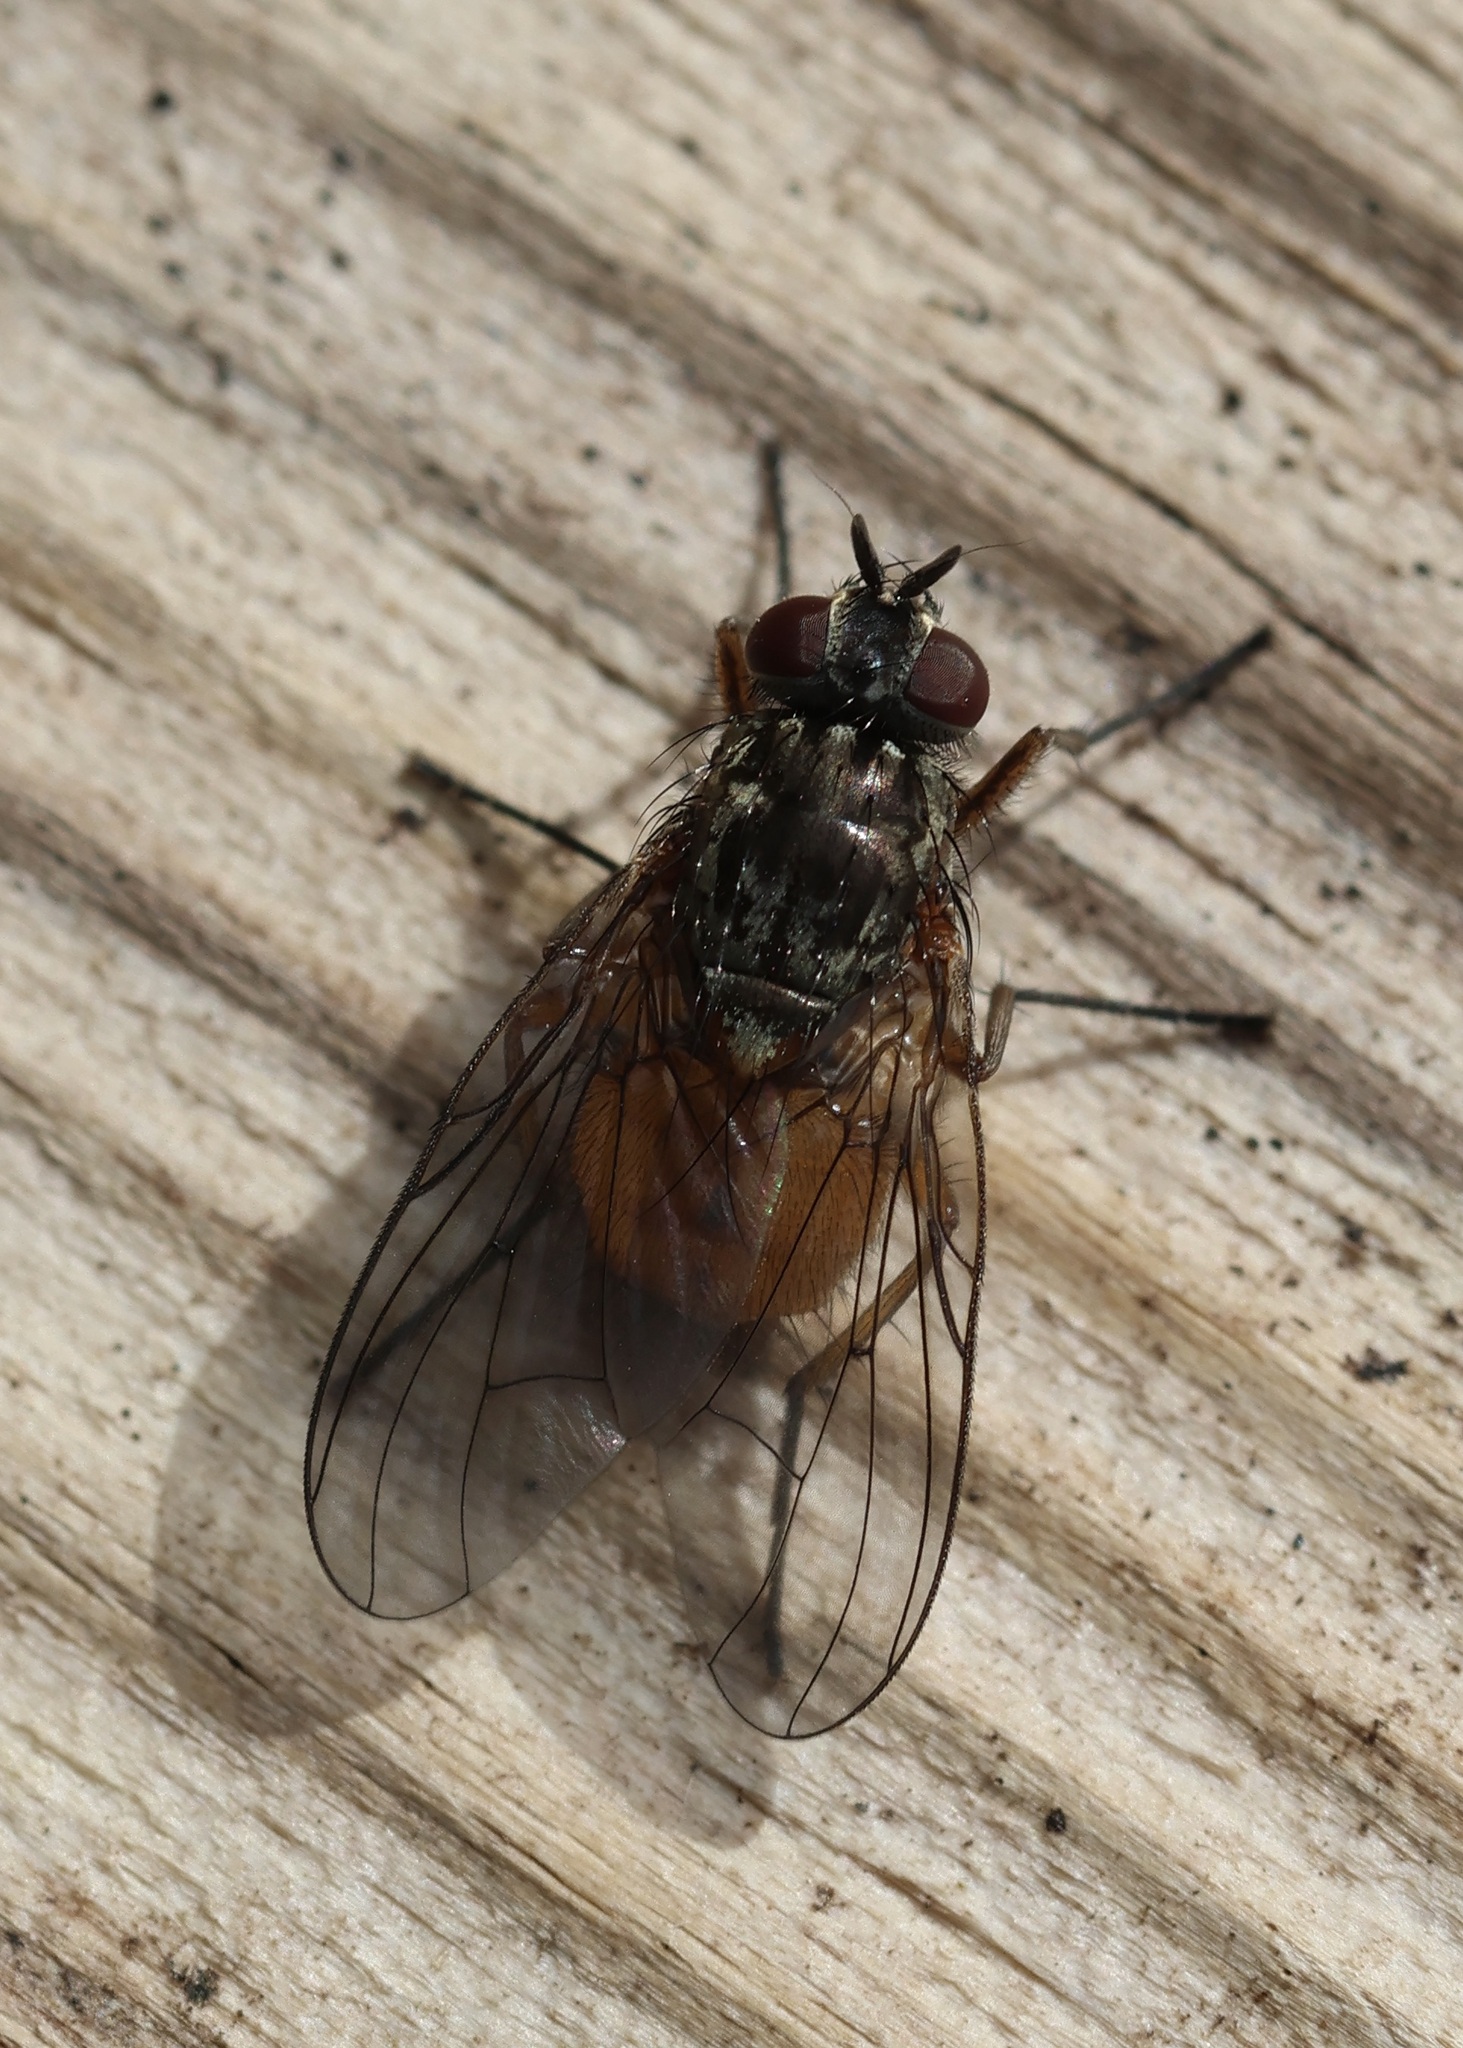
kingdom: Animalia
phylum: Arthropoda
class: Insecta
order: Diptera
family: Muscidae
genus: Phaonia
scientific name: Phaonia subventa
